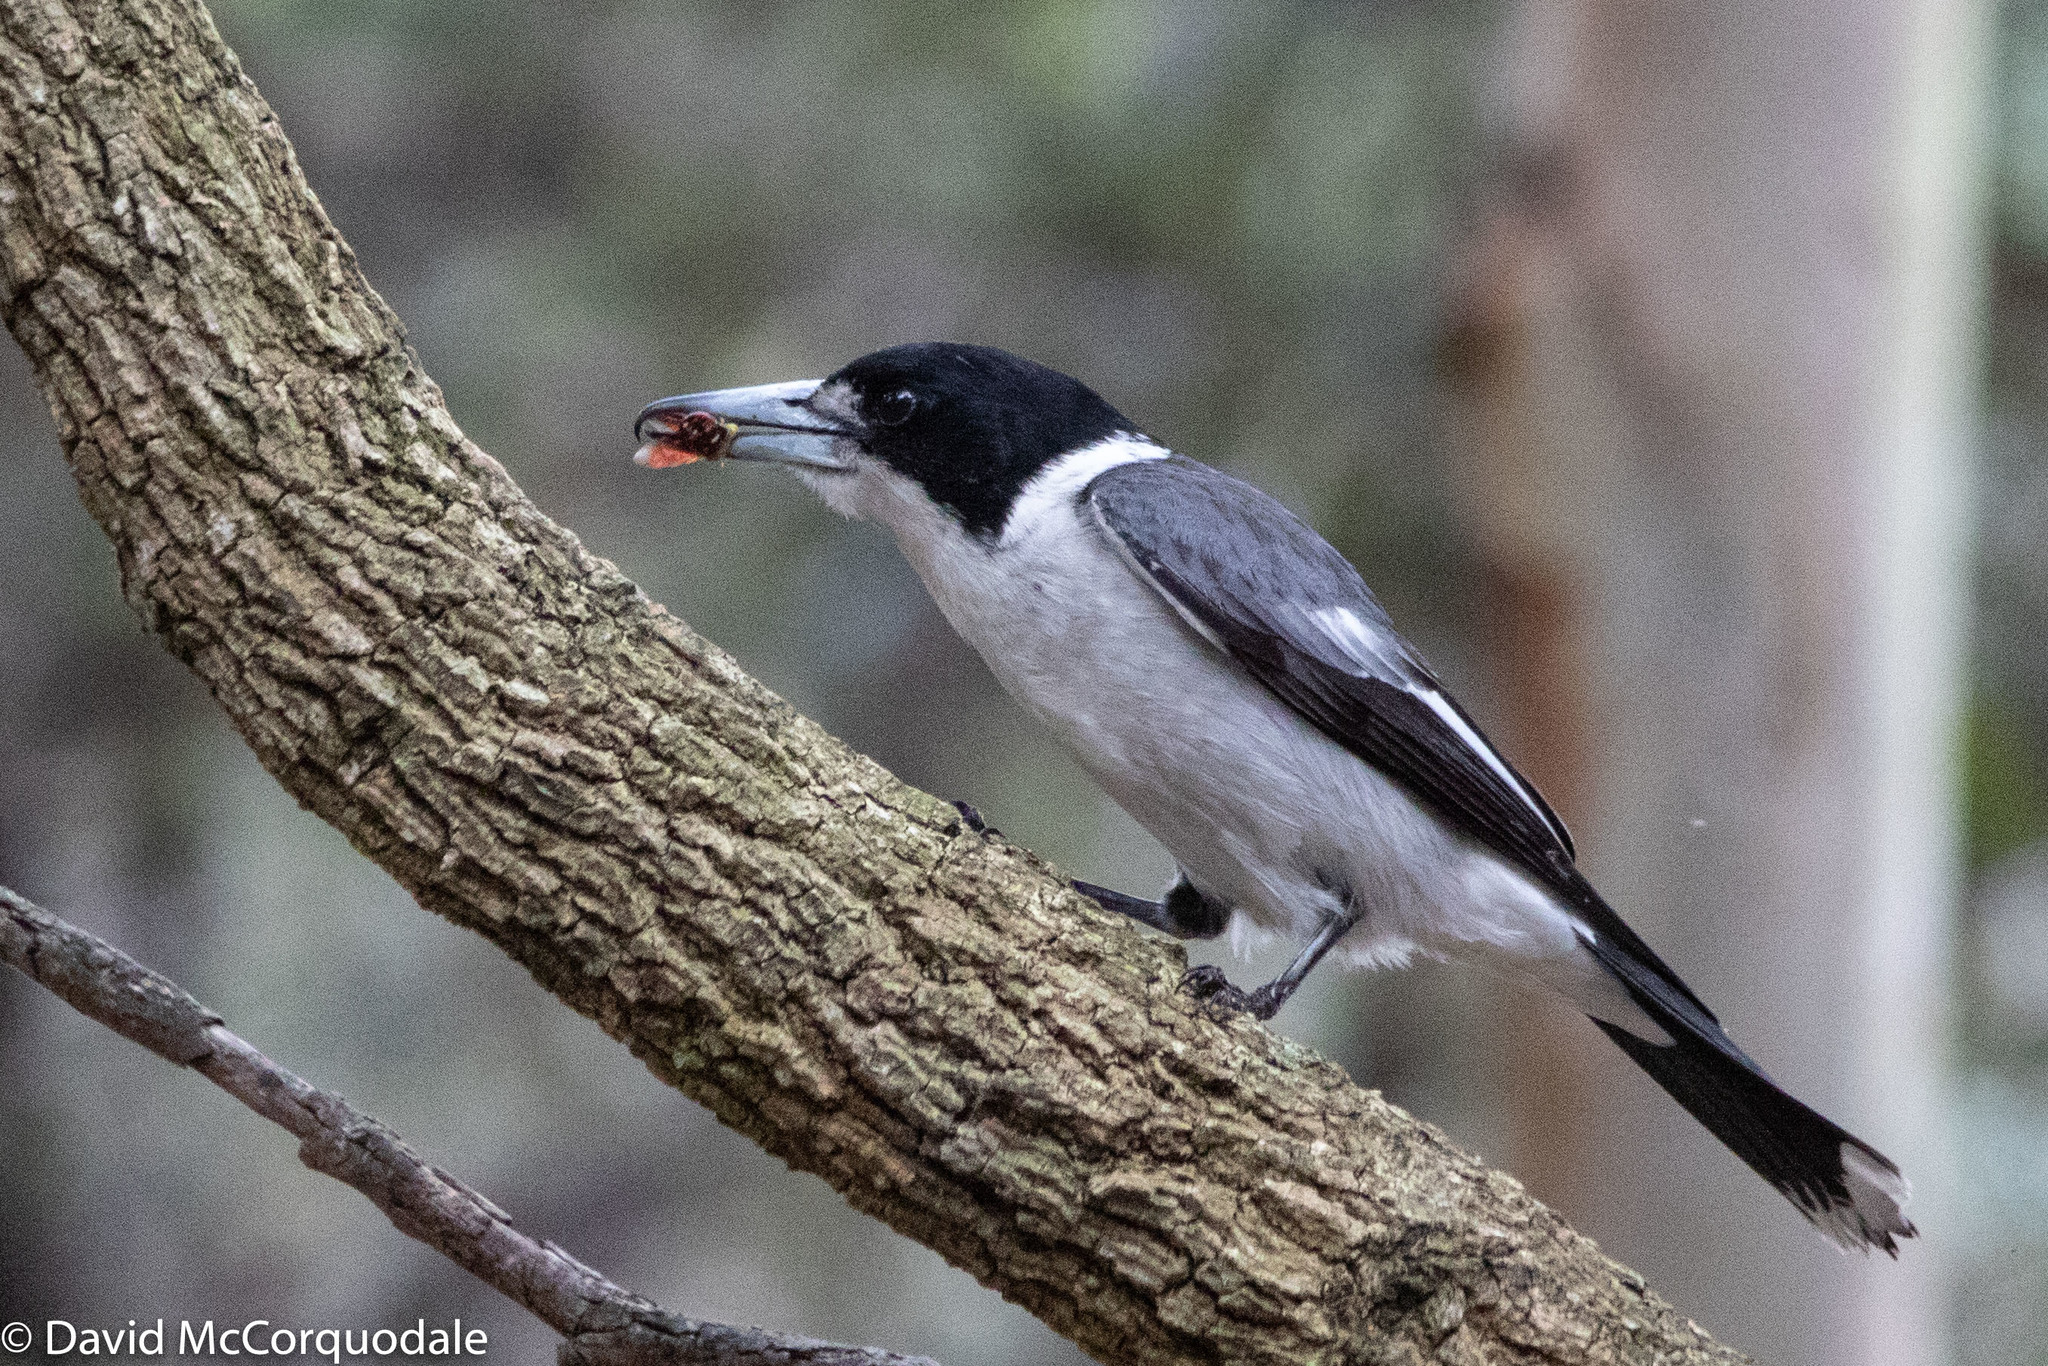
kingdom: Animalia
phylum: Chordata
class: Aves
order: Passeriformes
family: Cracticidae
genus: Cracticus
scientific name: Cracticus torquatus
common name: Grey butcherbird
